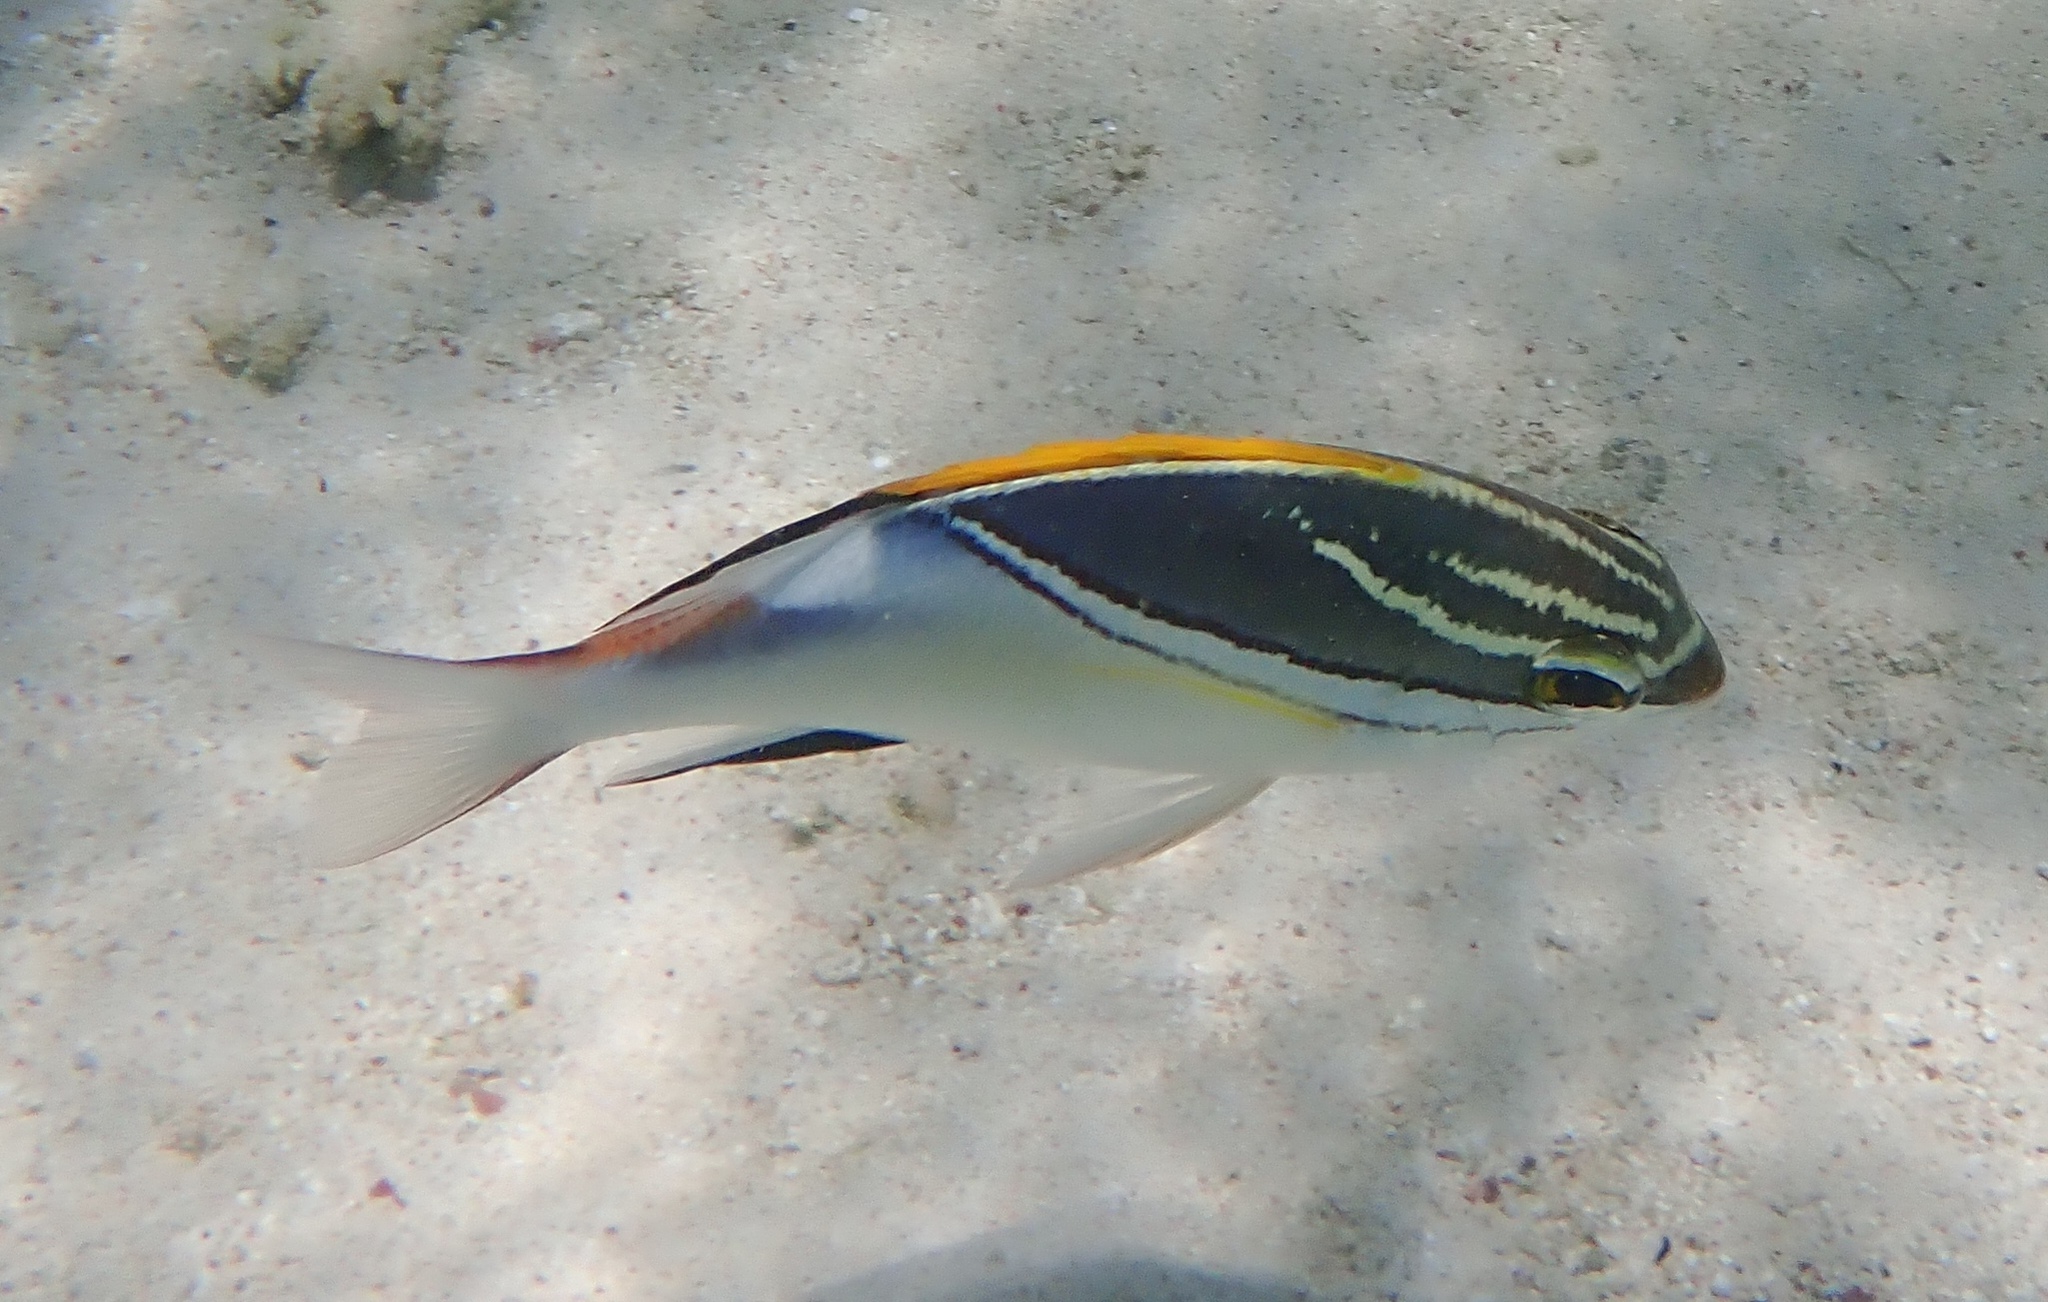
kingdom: Animalia
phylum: Chordata
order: Perciformes
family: Nemipteridae
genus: Scolopsis
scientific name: Scolopsis bilineata
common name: Two-lined monocle bream
